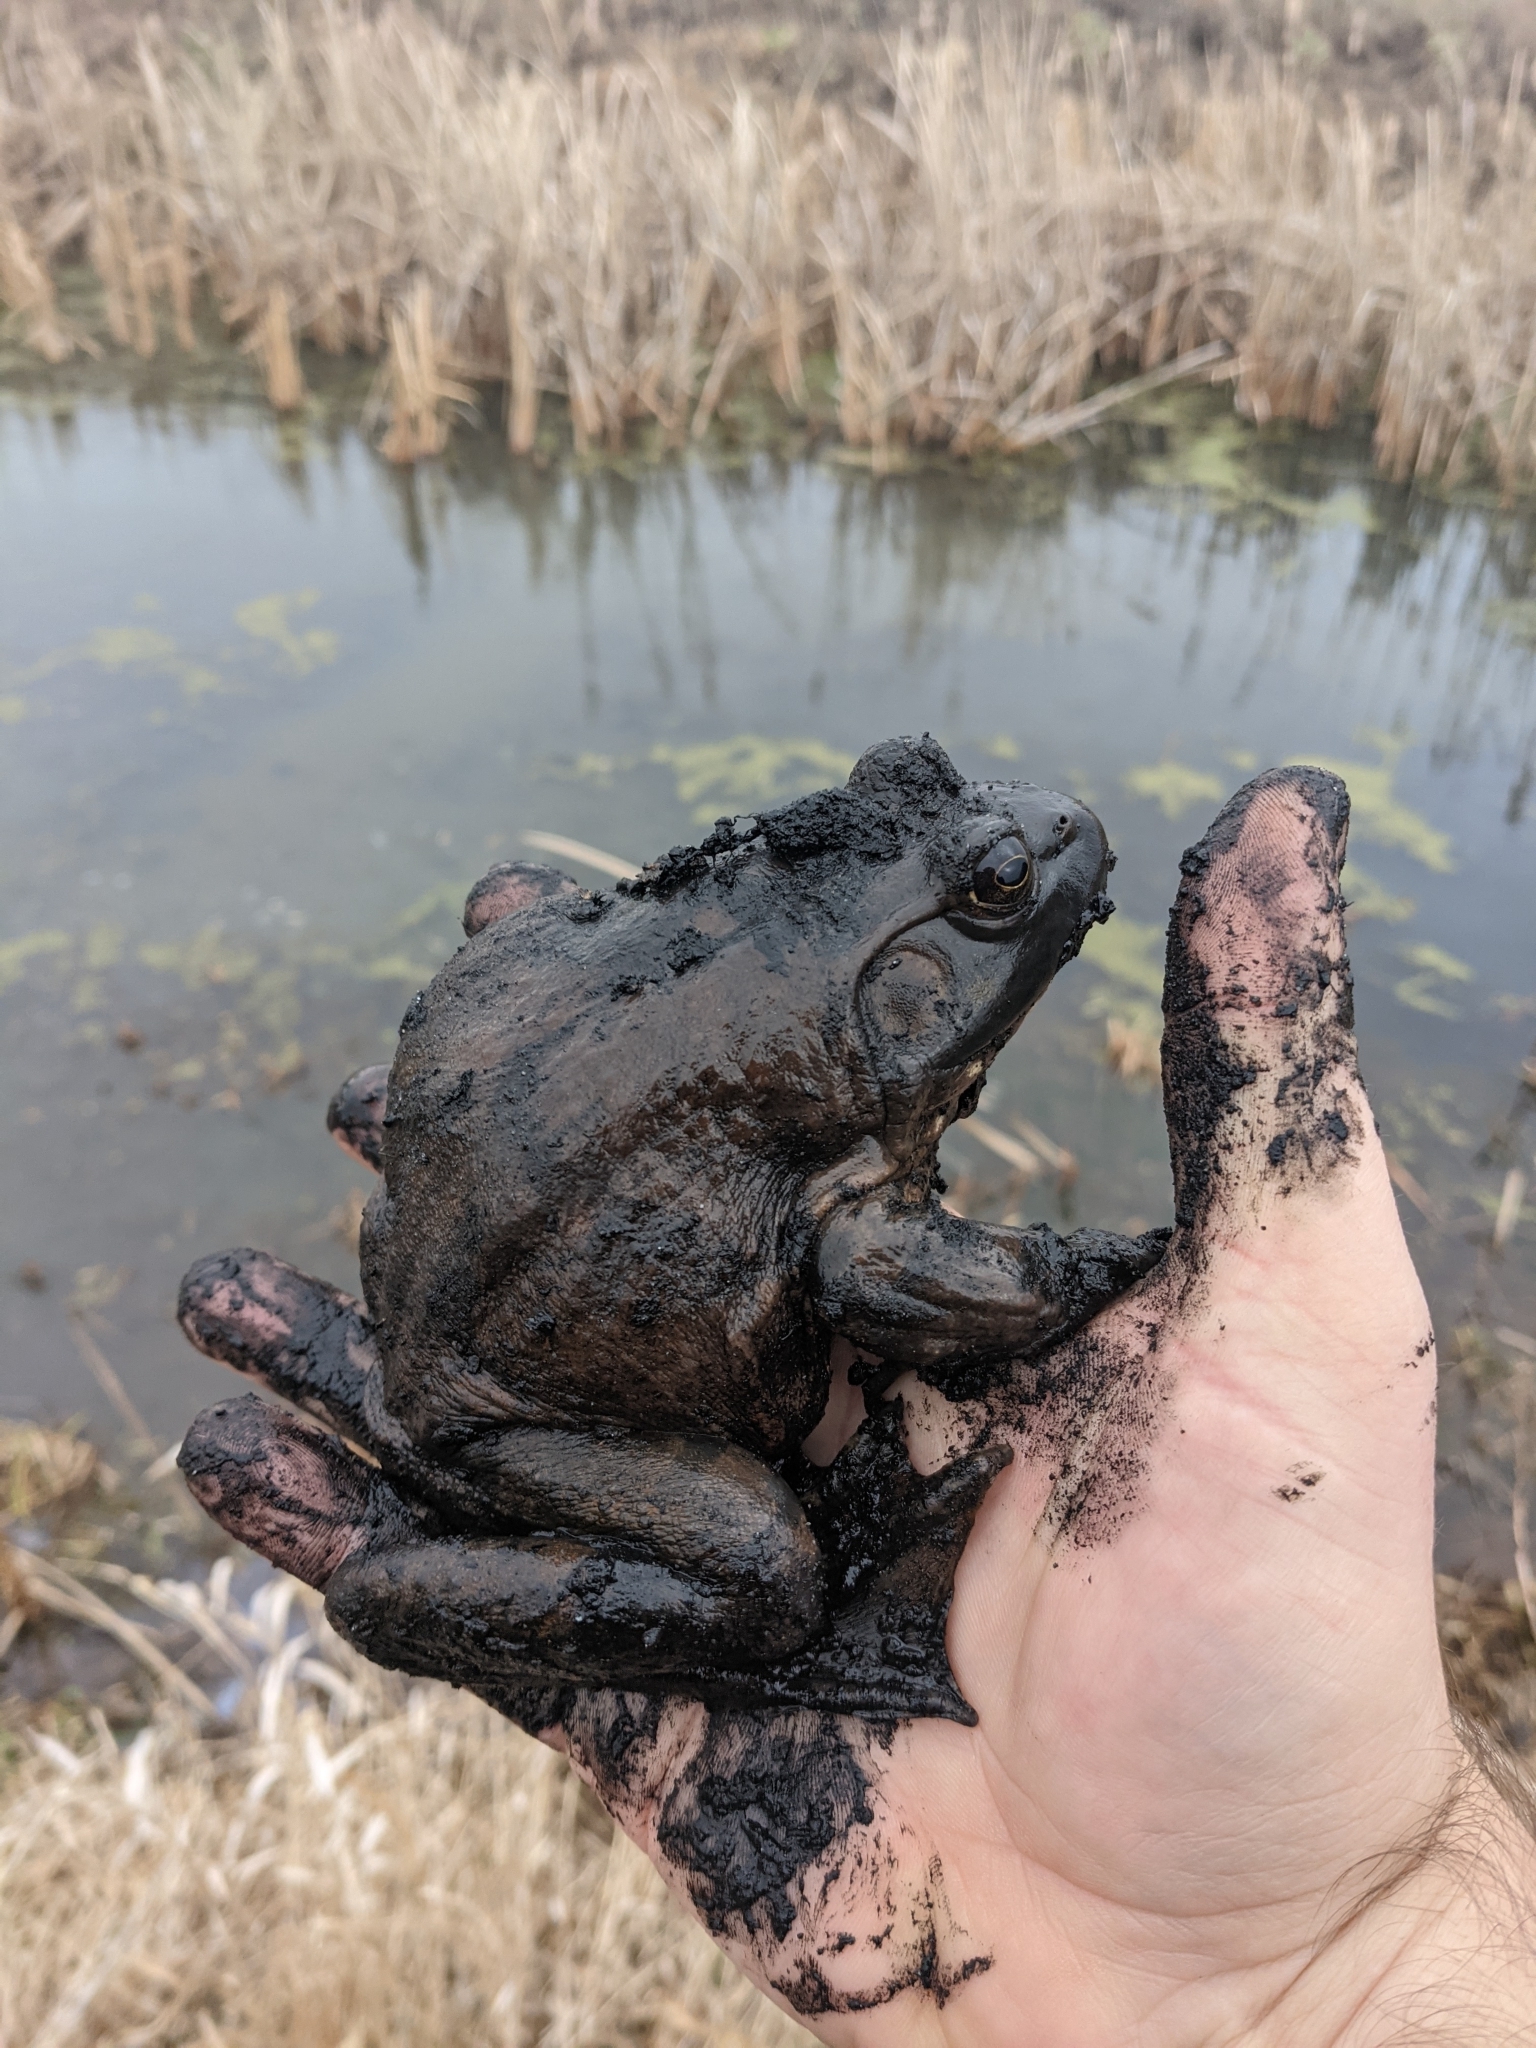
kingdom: Animalia
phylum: Chordata
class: Amphibia
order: Anura
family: Ranidae
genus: Lithobates
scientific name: Lithobates catesbeianus
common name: American bullfrog
